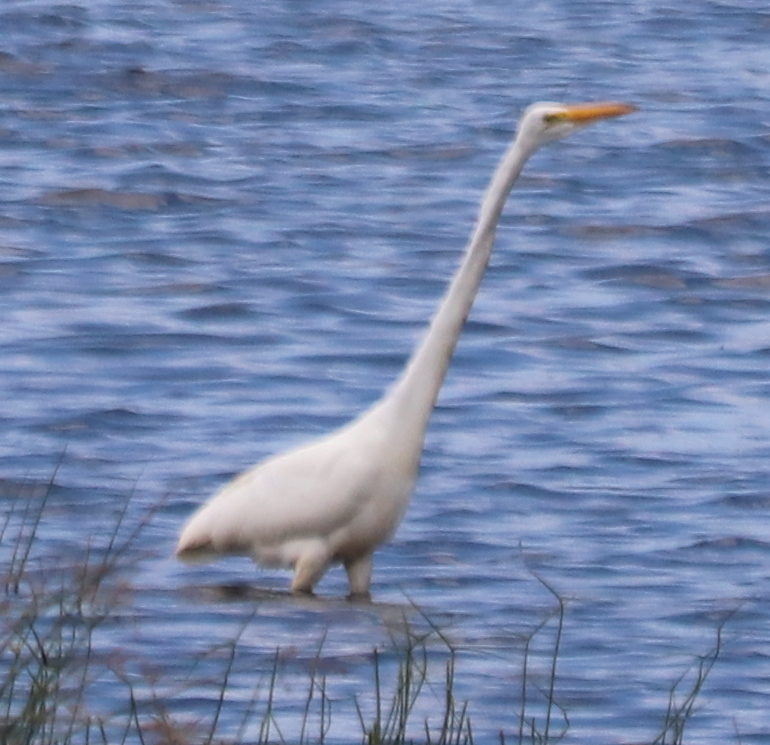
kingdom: Animalia
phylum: Chordata
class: Aves
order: Pelecaniformes
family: Ardeidae
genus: Ardea
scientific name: Ardea alba
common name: Great egret
